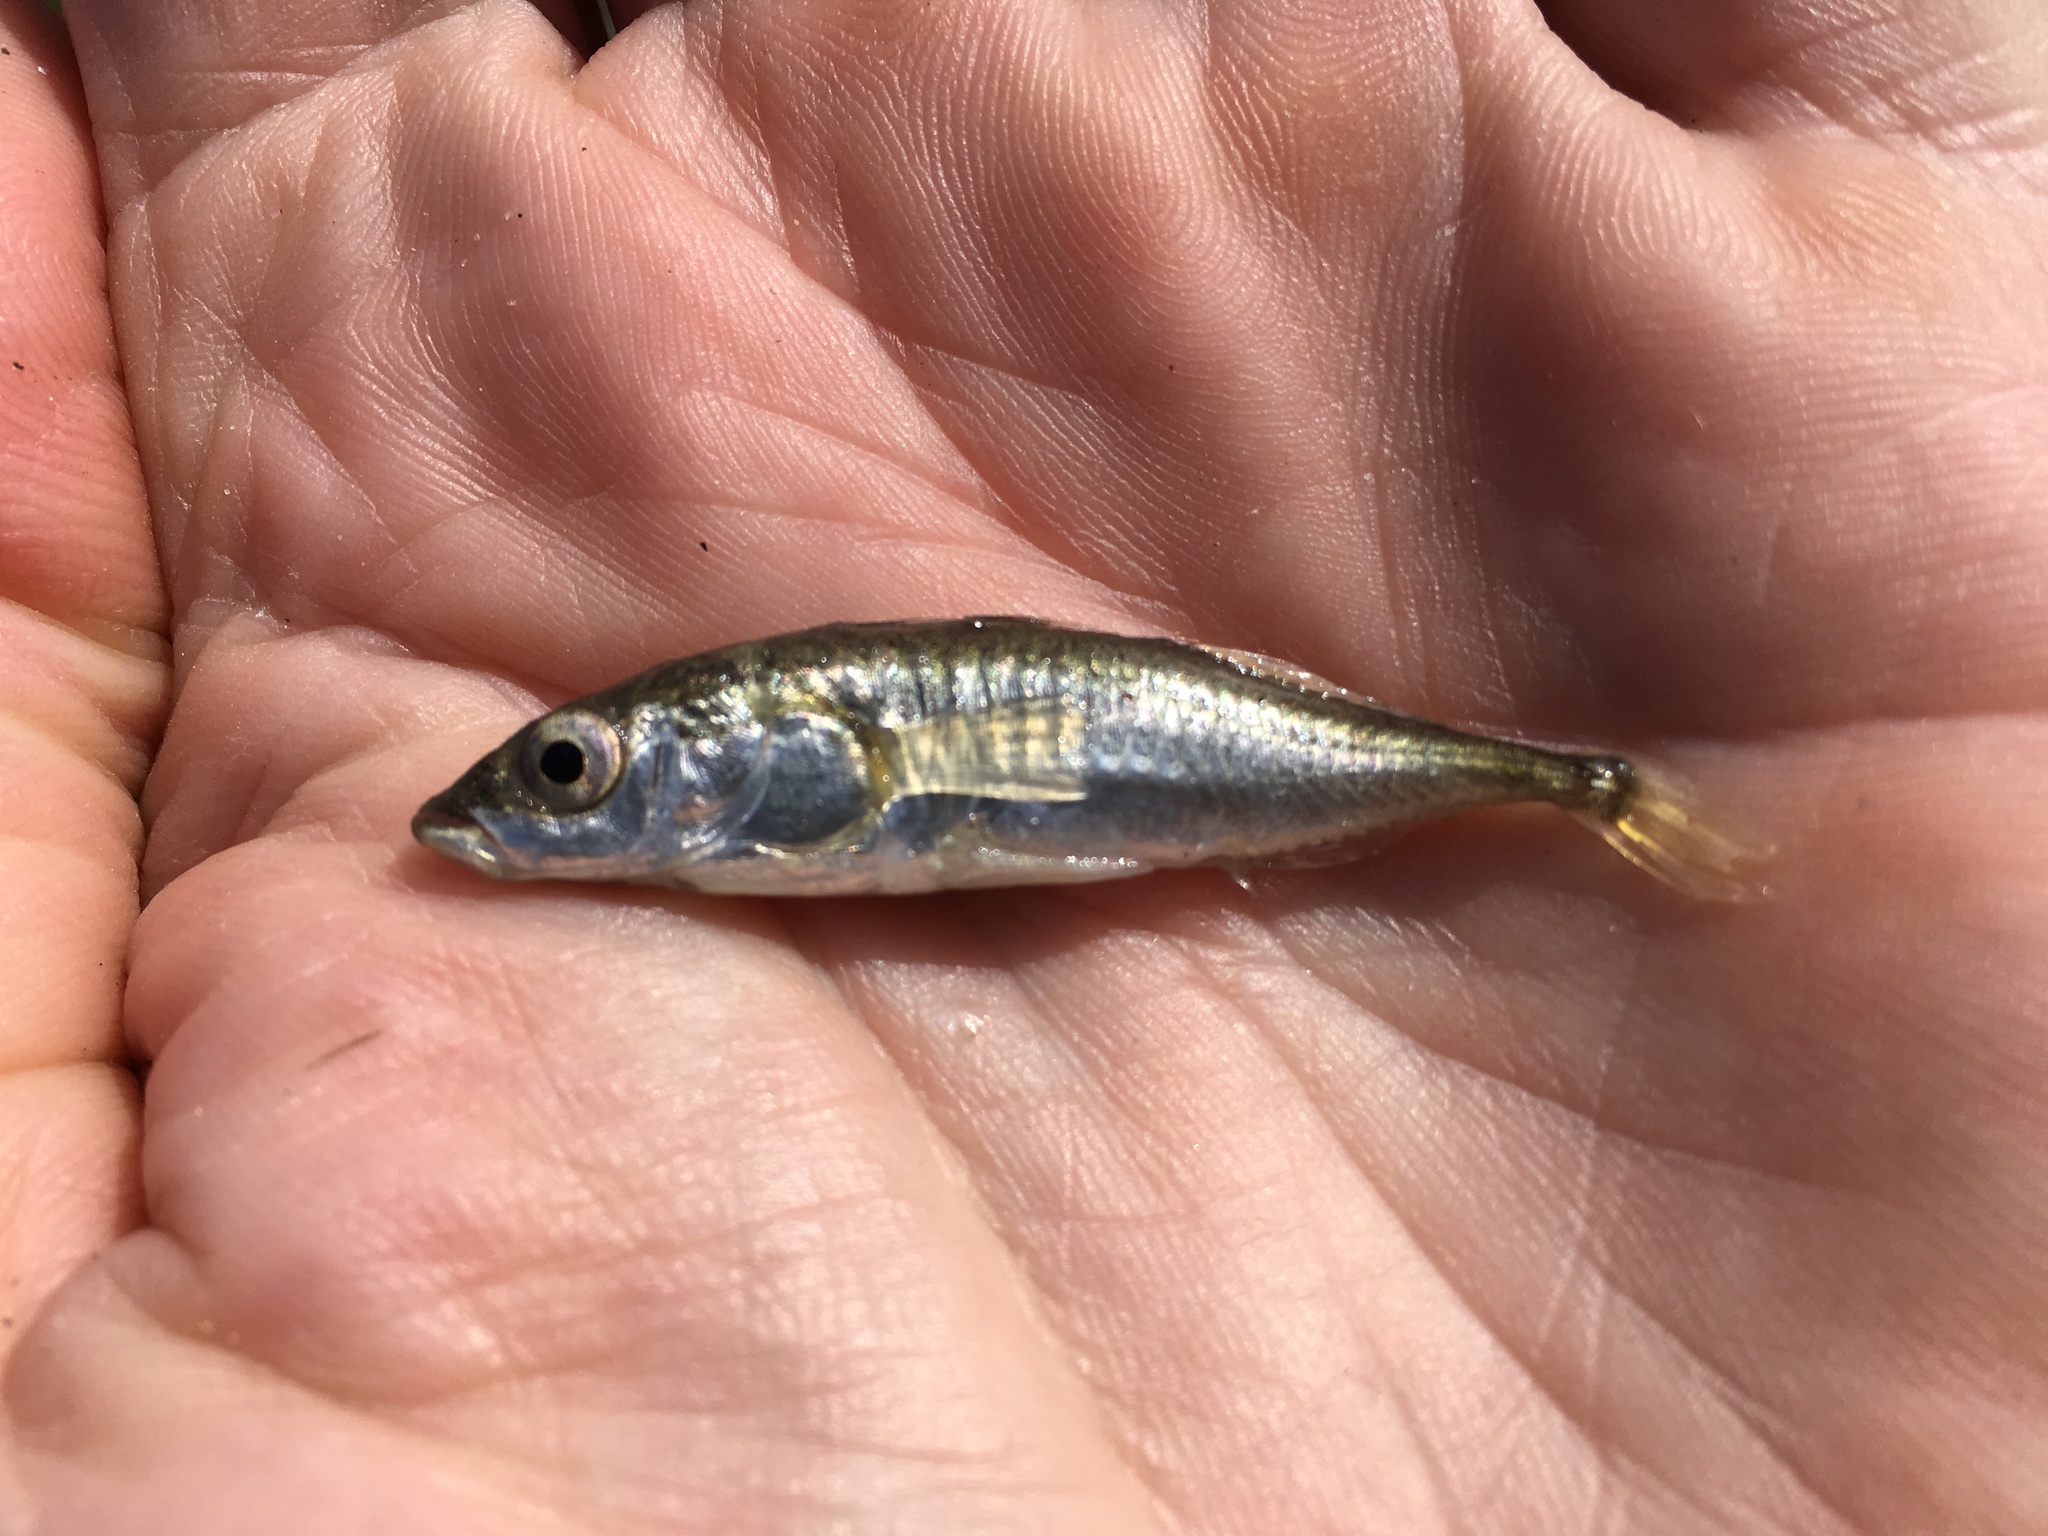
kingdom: Animalia
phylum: Chordata
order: Gasterosteiformes
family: Gasterosteidae
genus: Gasterosteus
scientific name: Gasterosteus aculeatus
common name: Three-spined stickleback
